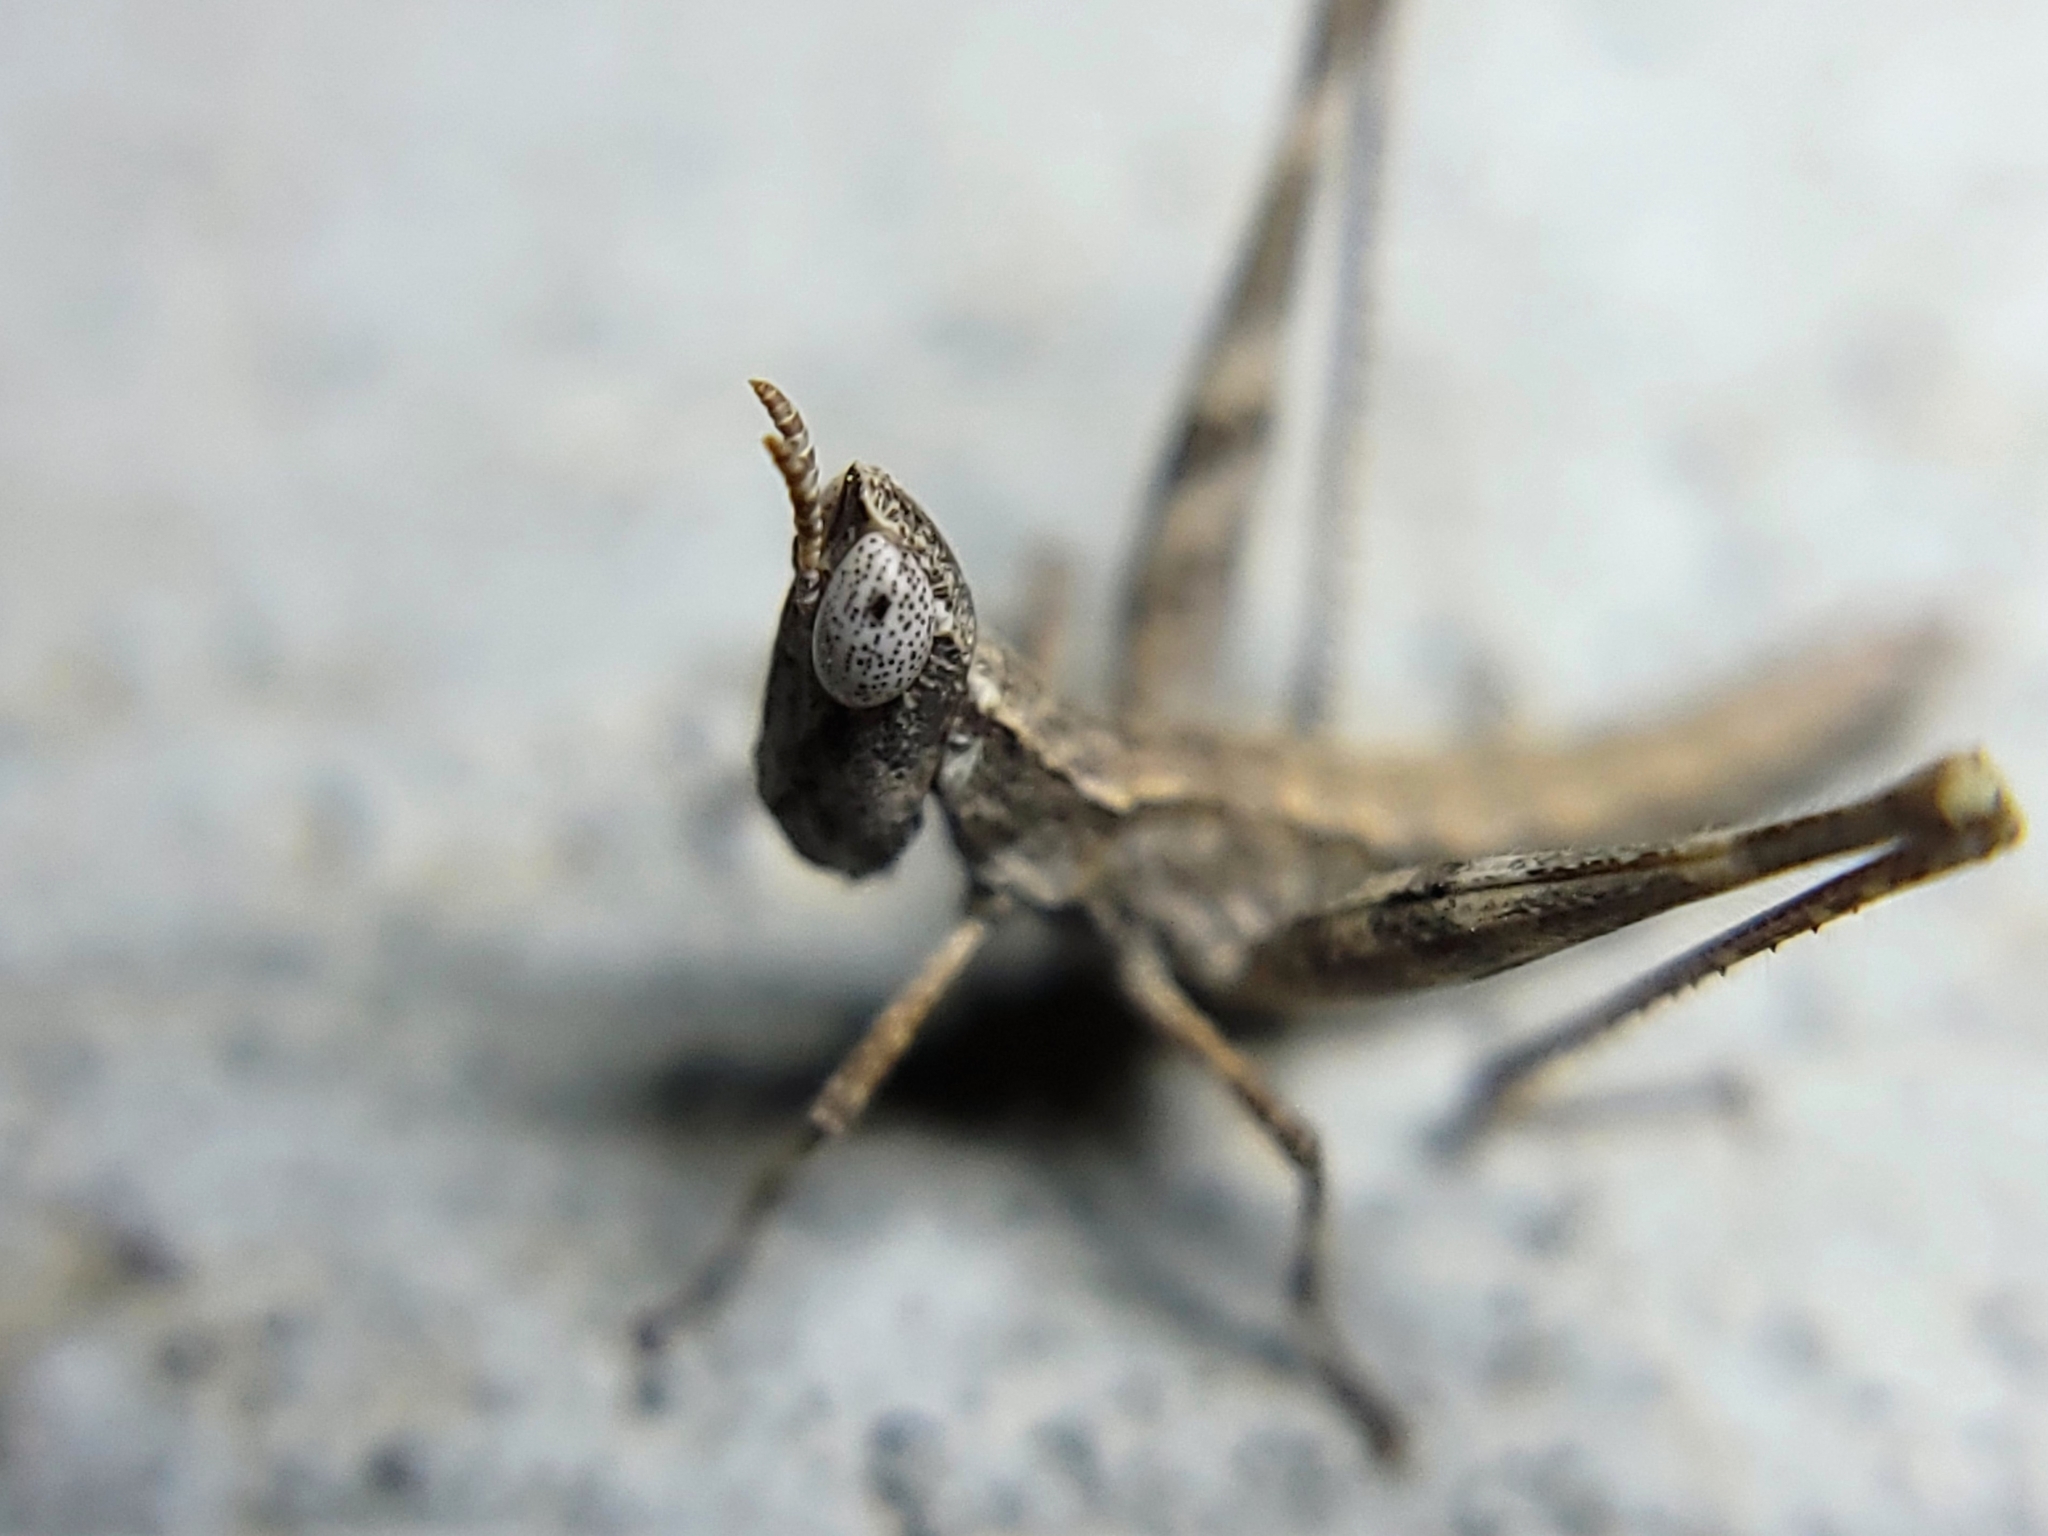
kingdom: Animalia
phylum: Arthropoda
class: Insecta
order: Orthoptera
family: Eumastacidae
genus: Morsea
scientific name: Morsea californica
